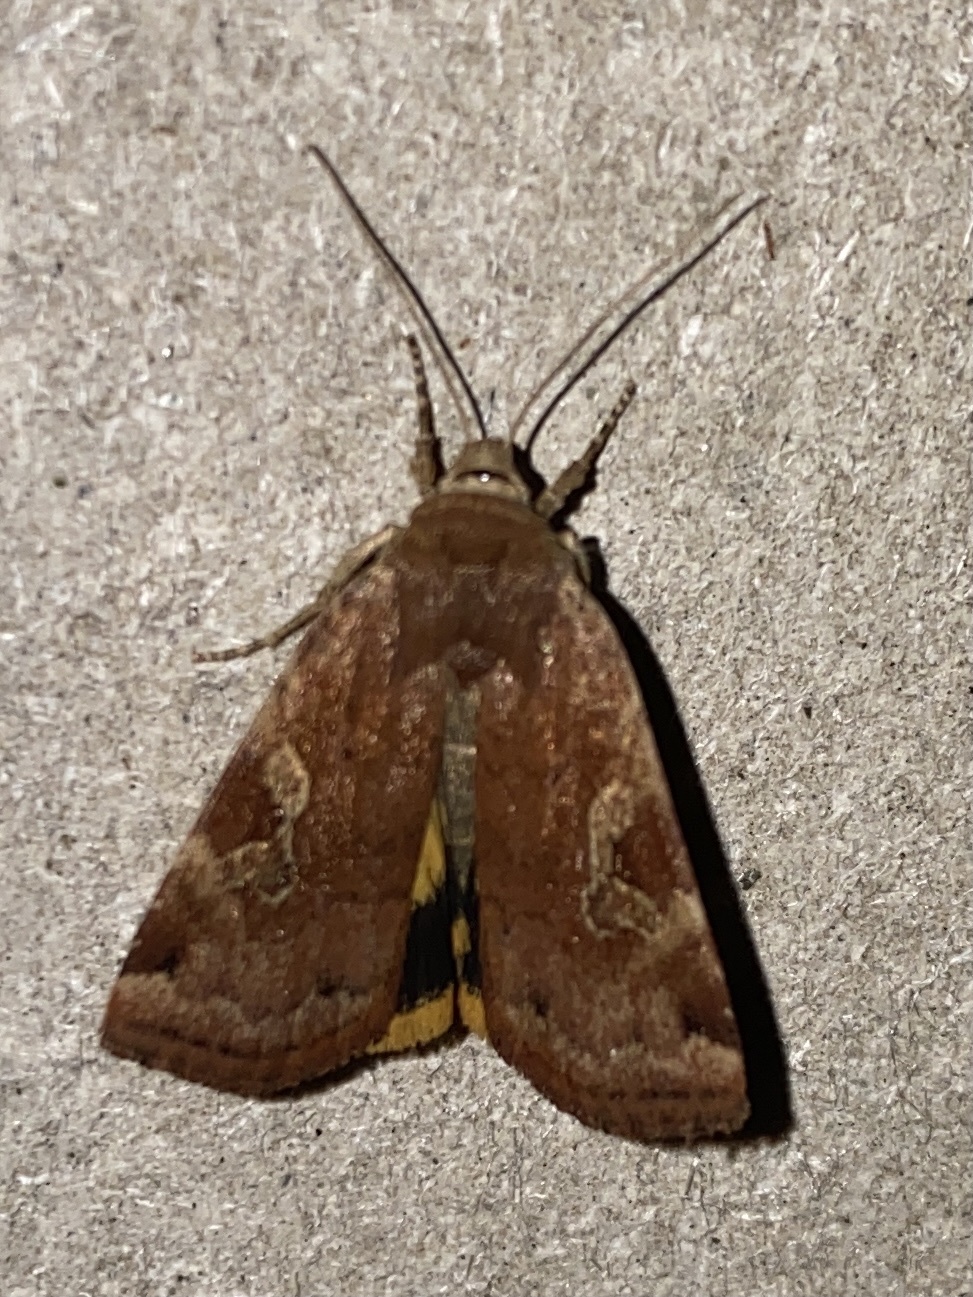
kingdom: Animalia
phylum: Arthropoda
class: Insecta
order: Lepidoptera
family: Noctuidae
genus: Cryptocala
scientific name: Cryptocala acadiensis
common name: Catocaline dart
